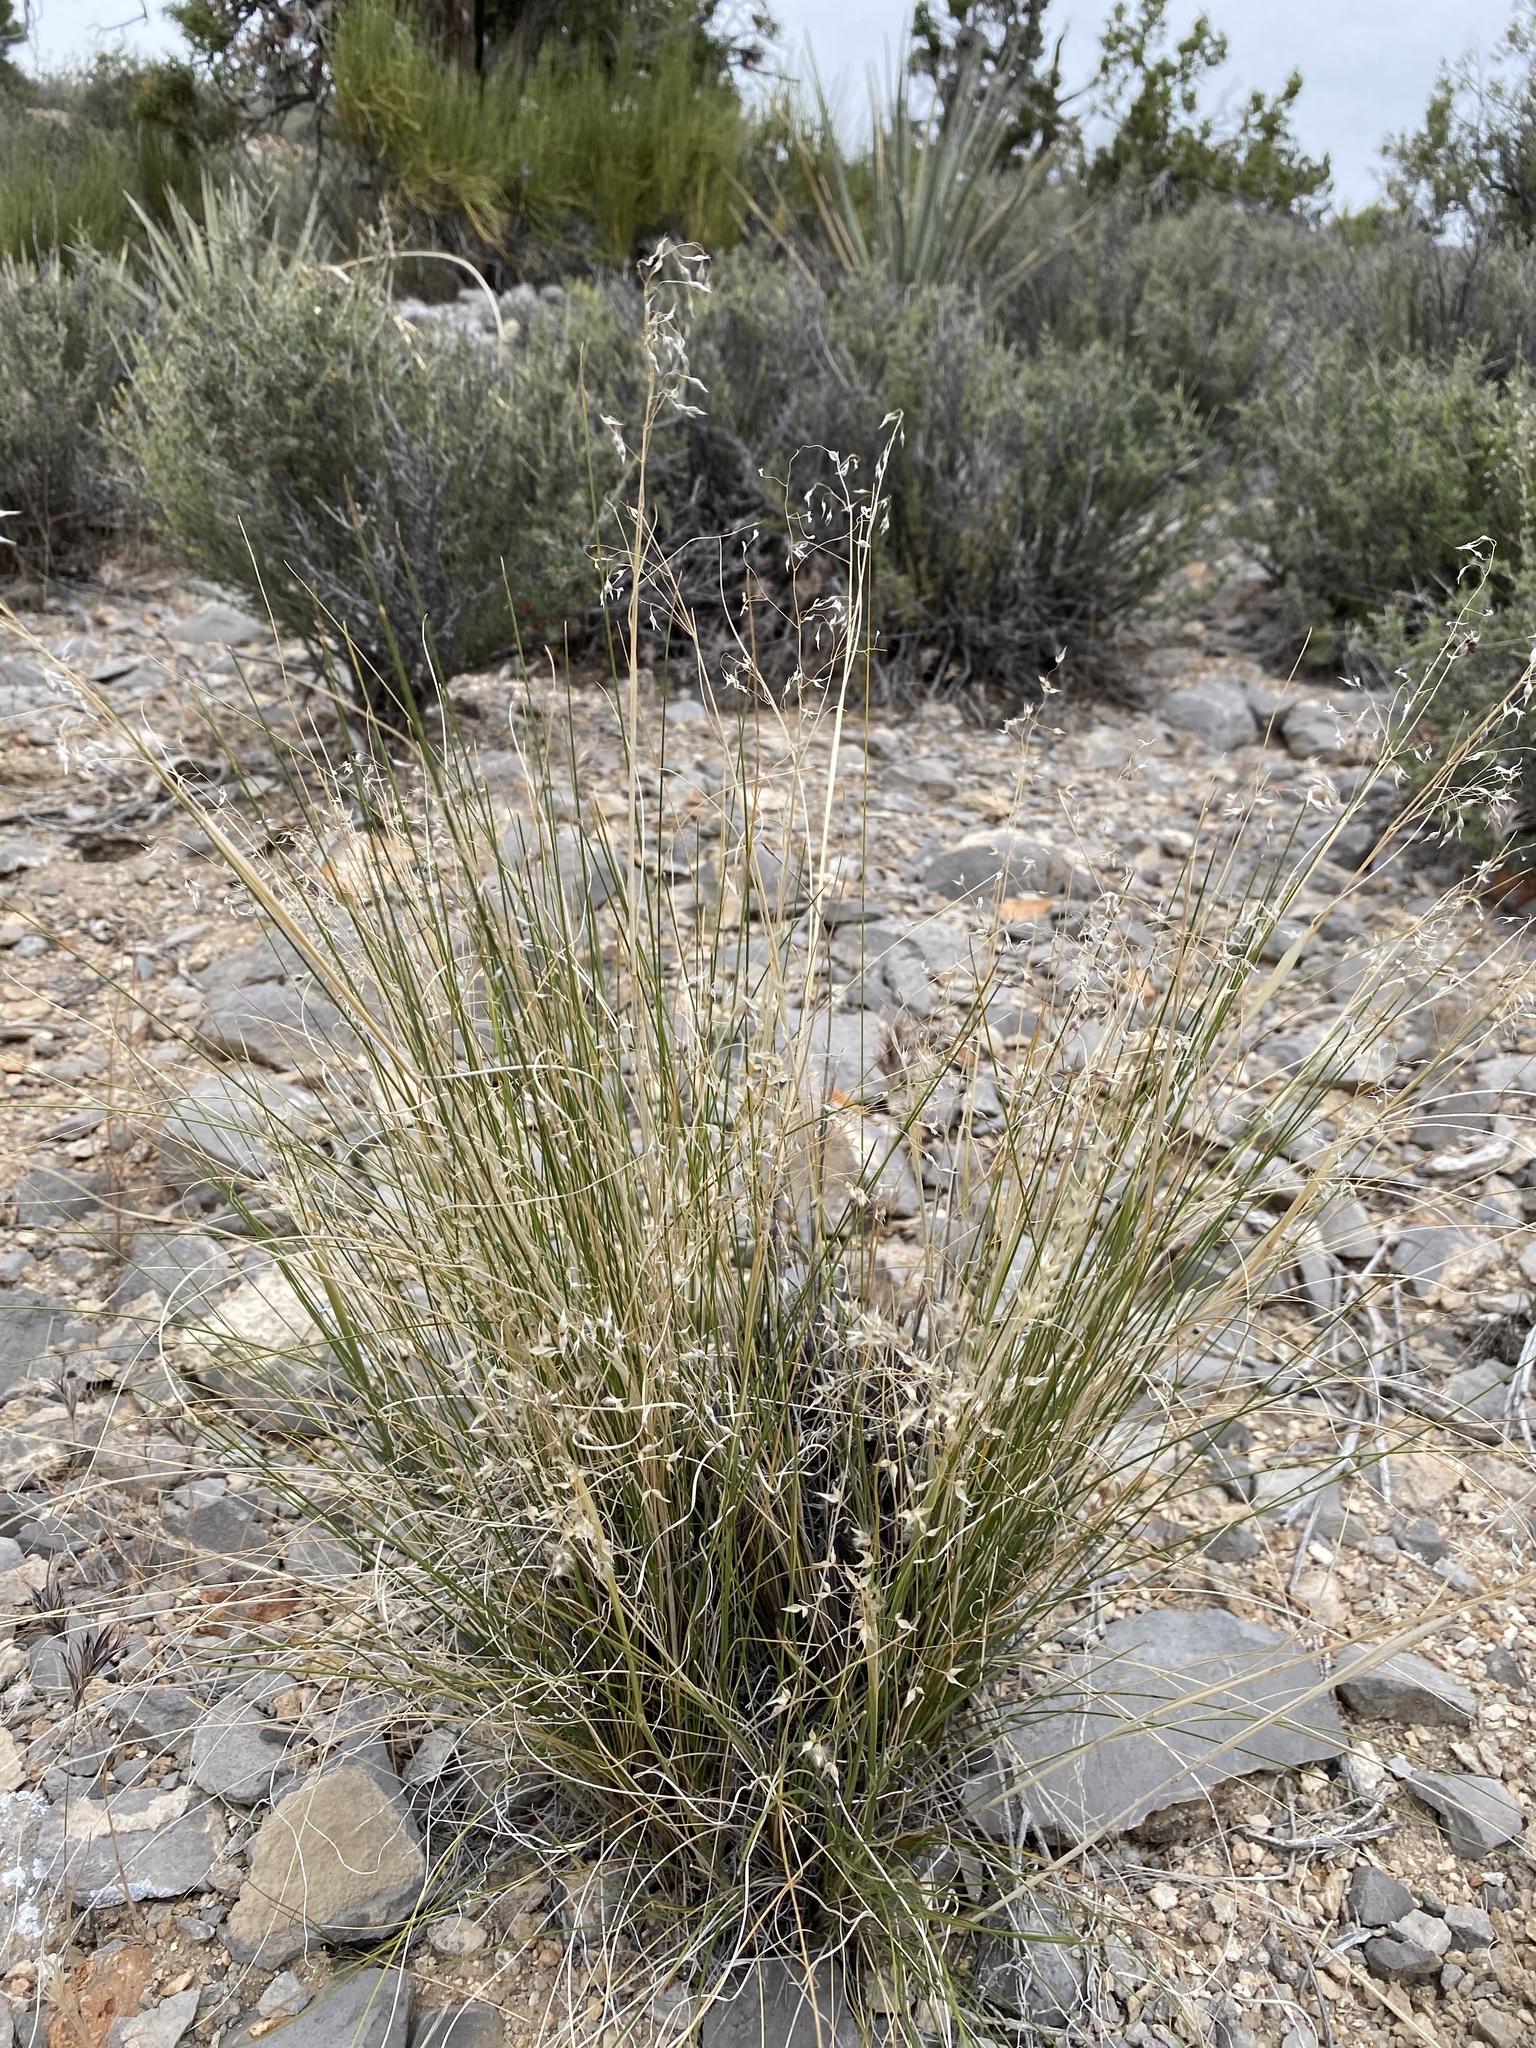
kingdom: Plantae
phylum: Tracheophyta
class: Liliopsida
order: Poales
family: Poaceae
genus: Eriocoma
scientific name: Eriocoma hymenoides
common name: Indian mountain ricegrass
